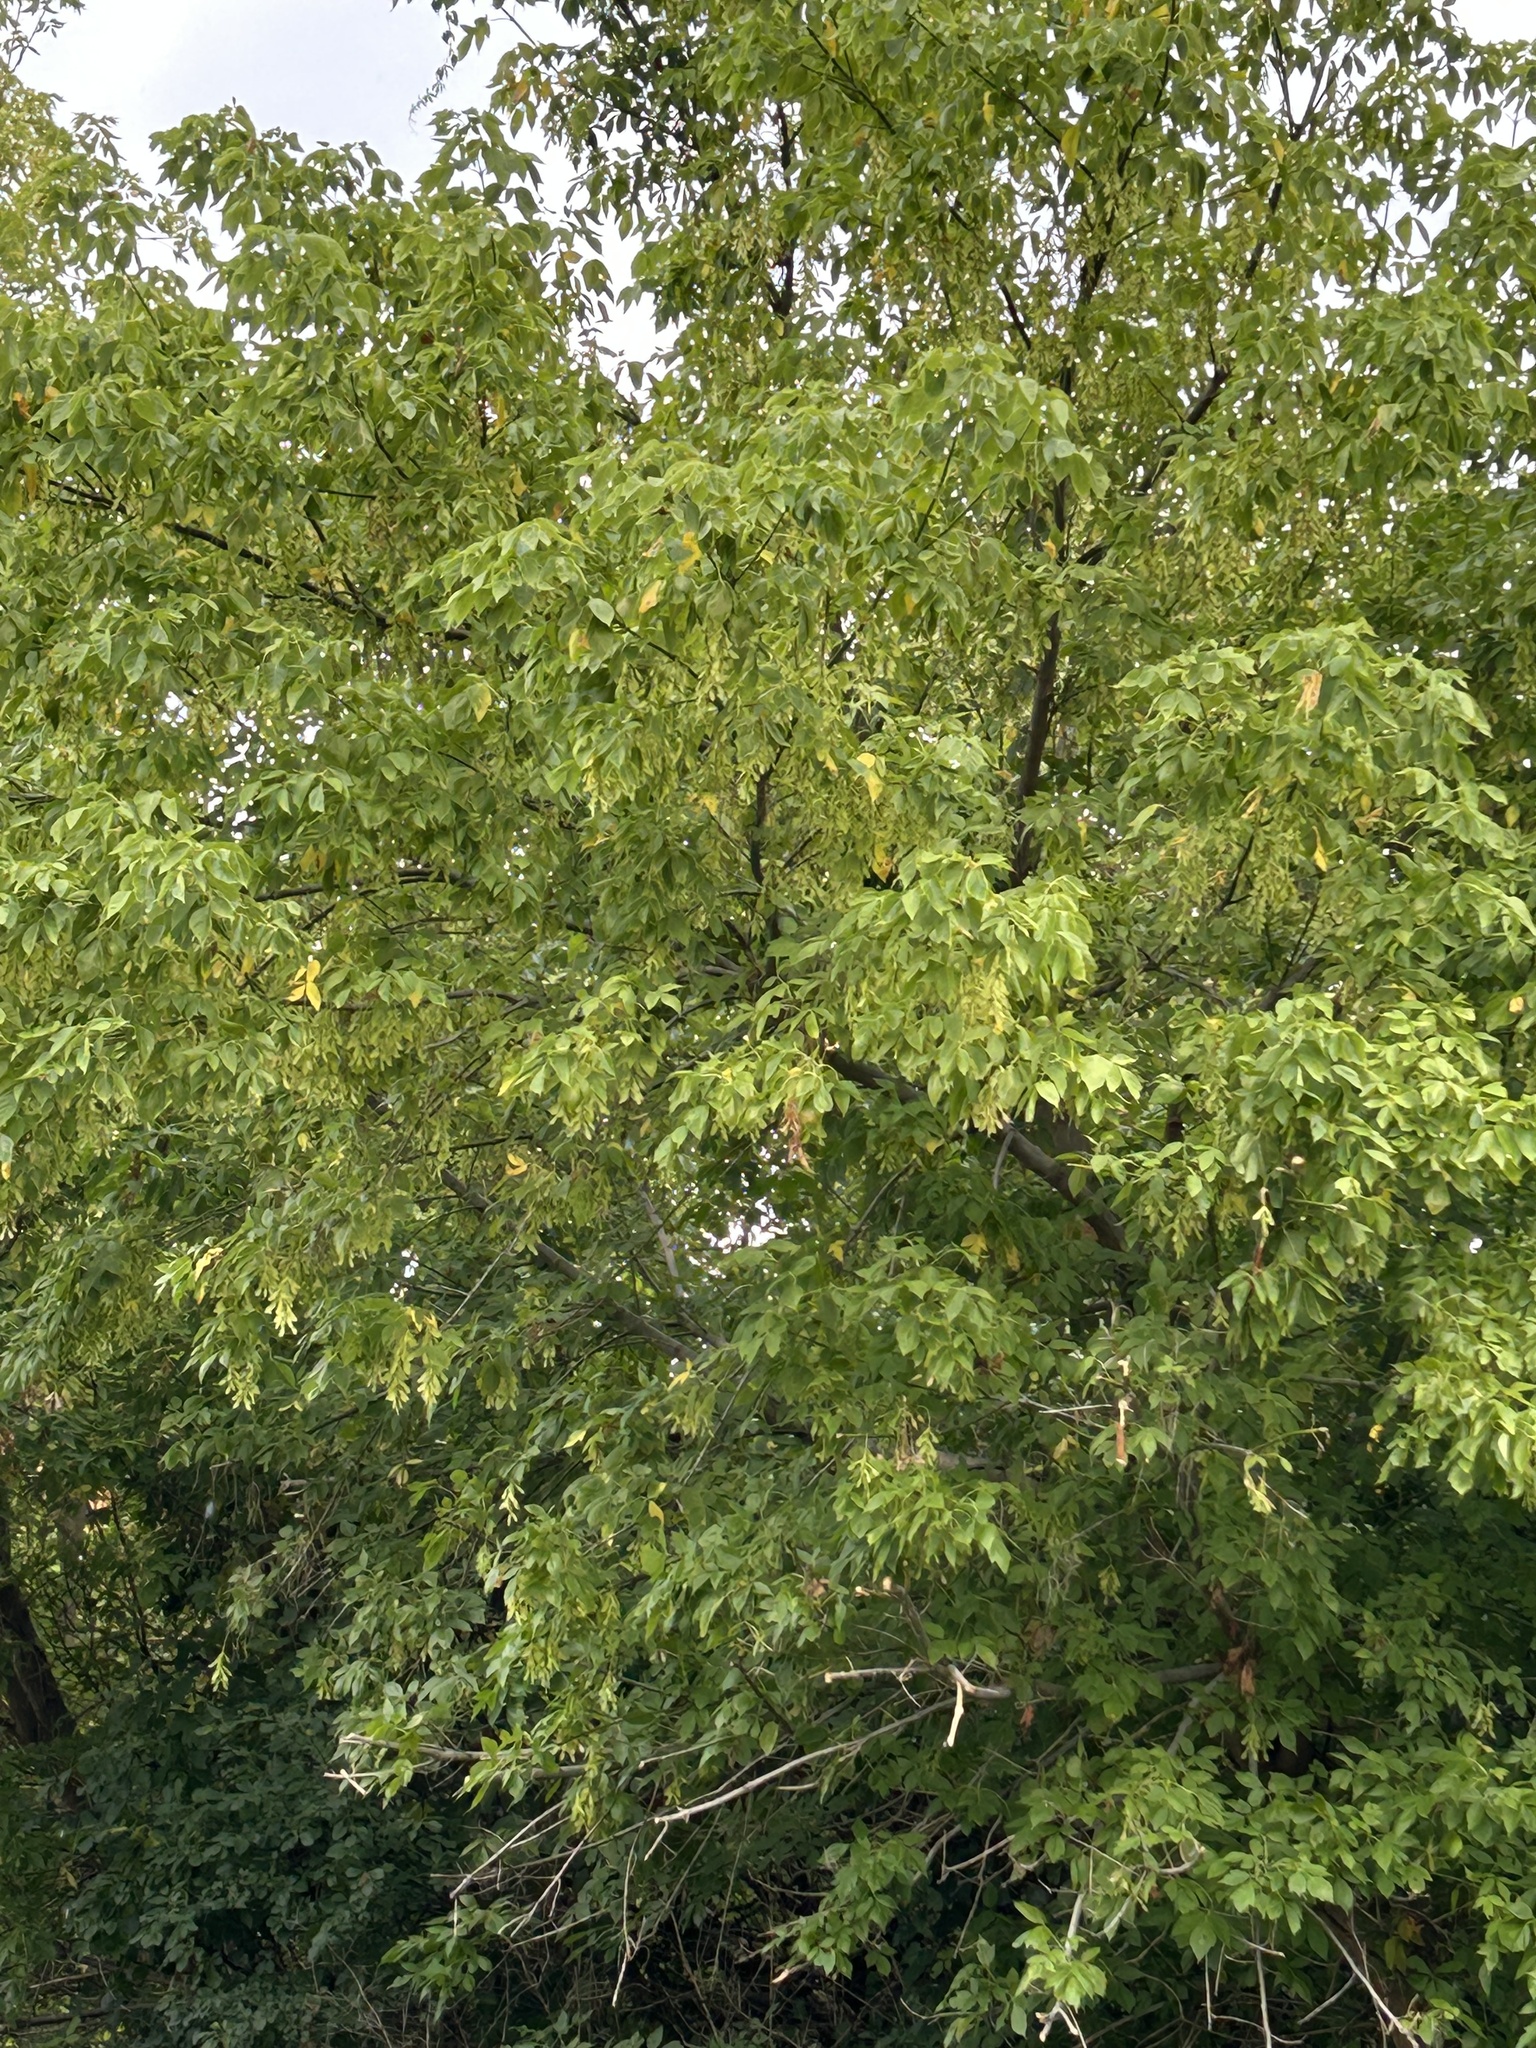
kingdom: Plantae
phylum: Tracheophyta
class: Magnoliopsida
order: Sapindales
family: Sapindaceae
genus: Acer
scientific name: Acer negundo
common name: Ashleaf maple
